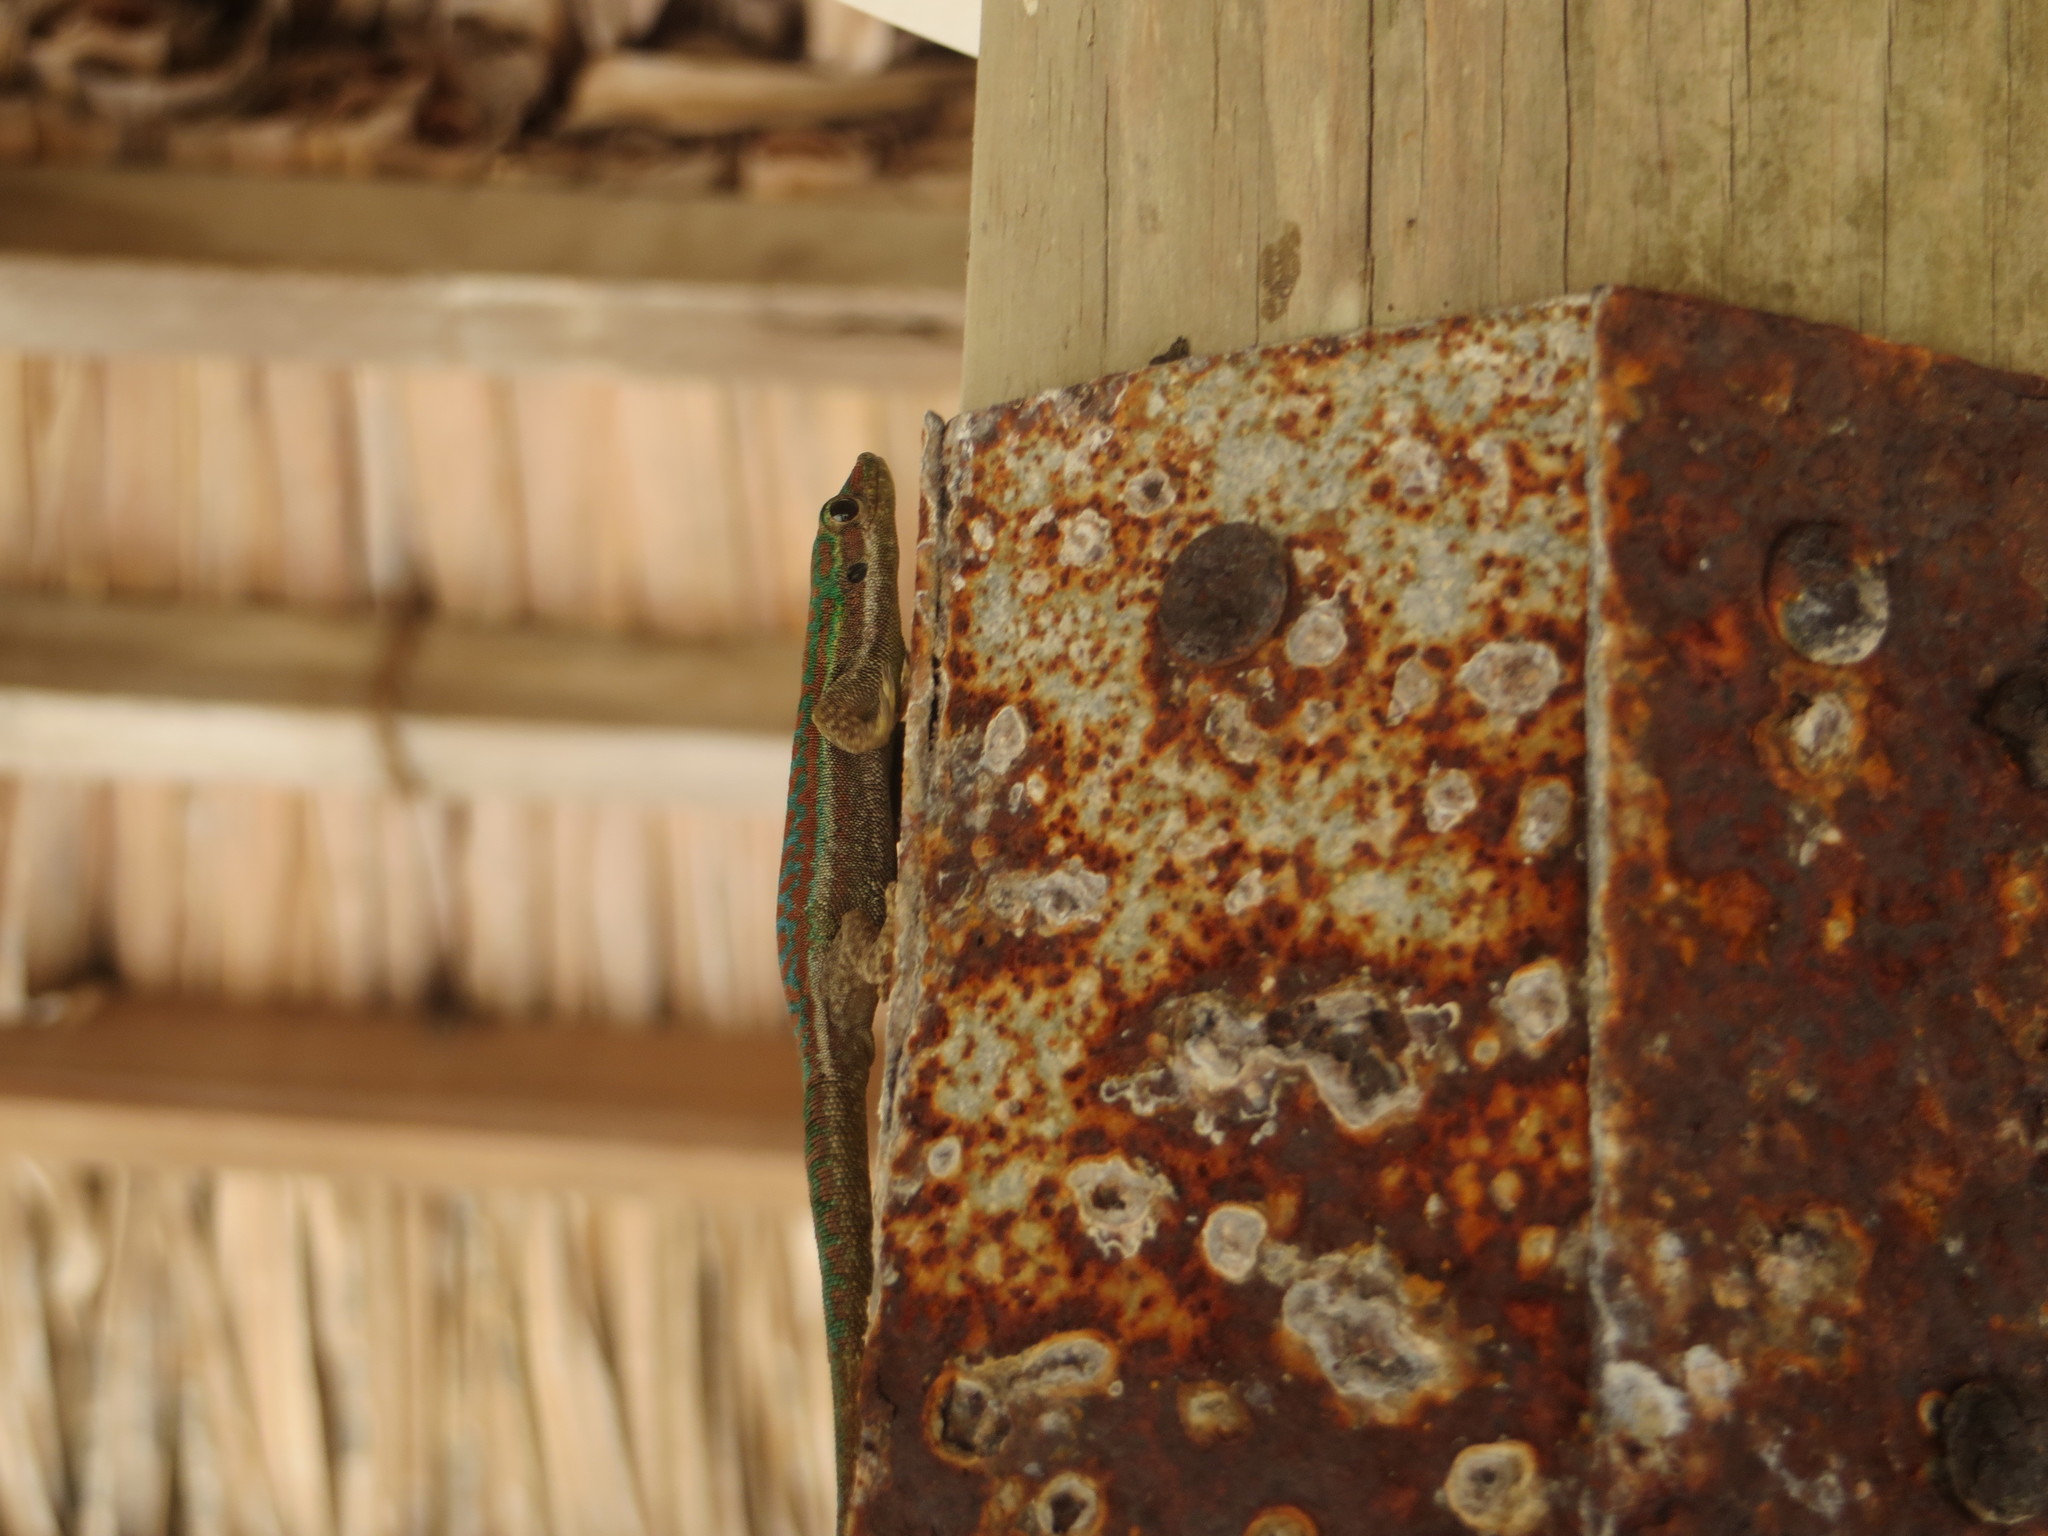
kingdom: Animalia
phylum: Chordata
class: Squamata
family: Gekkonidae
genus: Phelsuma
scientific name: Phelsuma cepediana
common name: Bluetail day gecko
